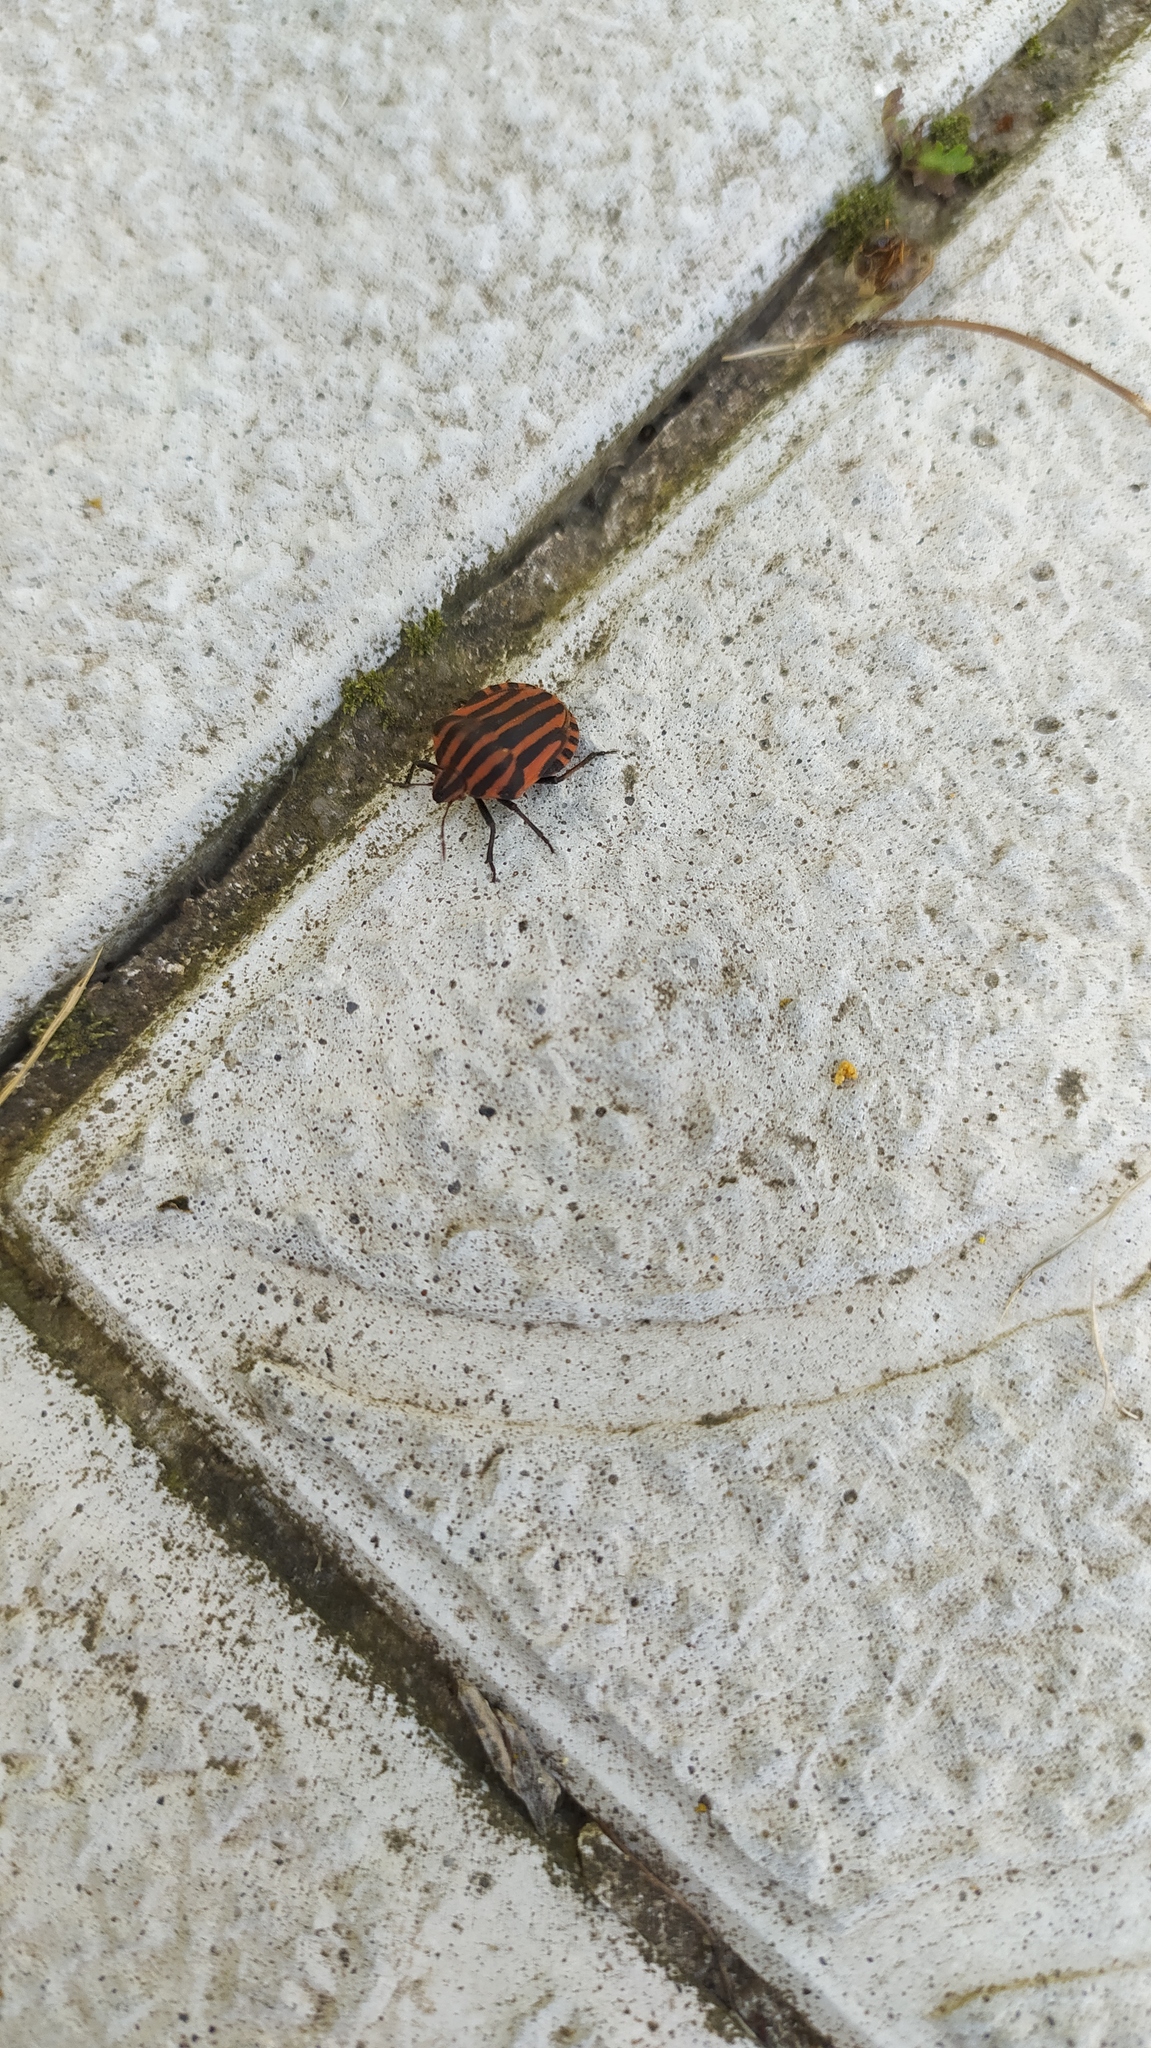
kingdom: Animalia
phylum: Arthropoda
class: Insecta
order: Hemiptera
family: Pentatomidae
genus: Graphosoma
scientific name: Graphosoma italicum
